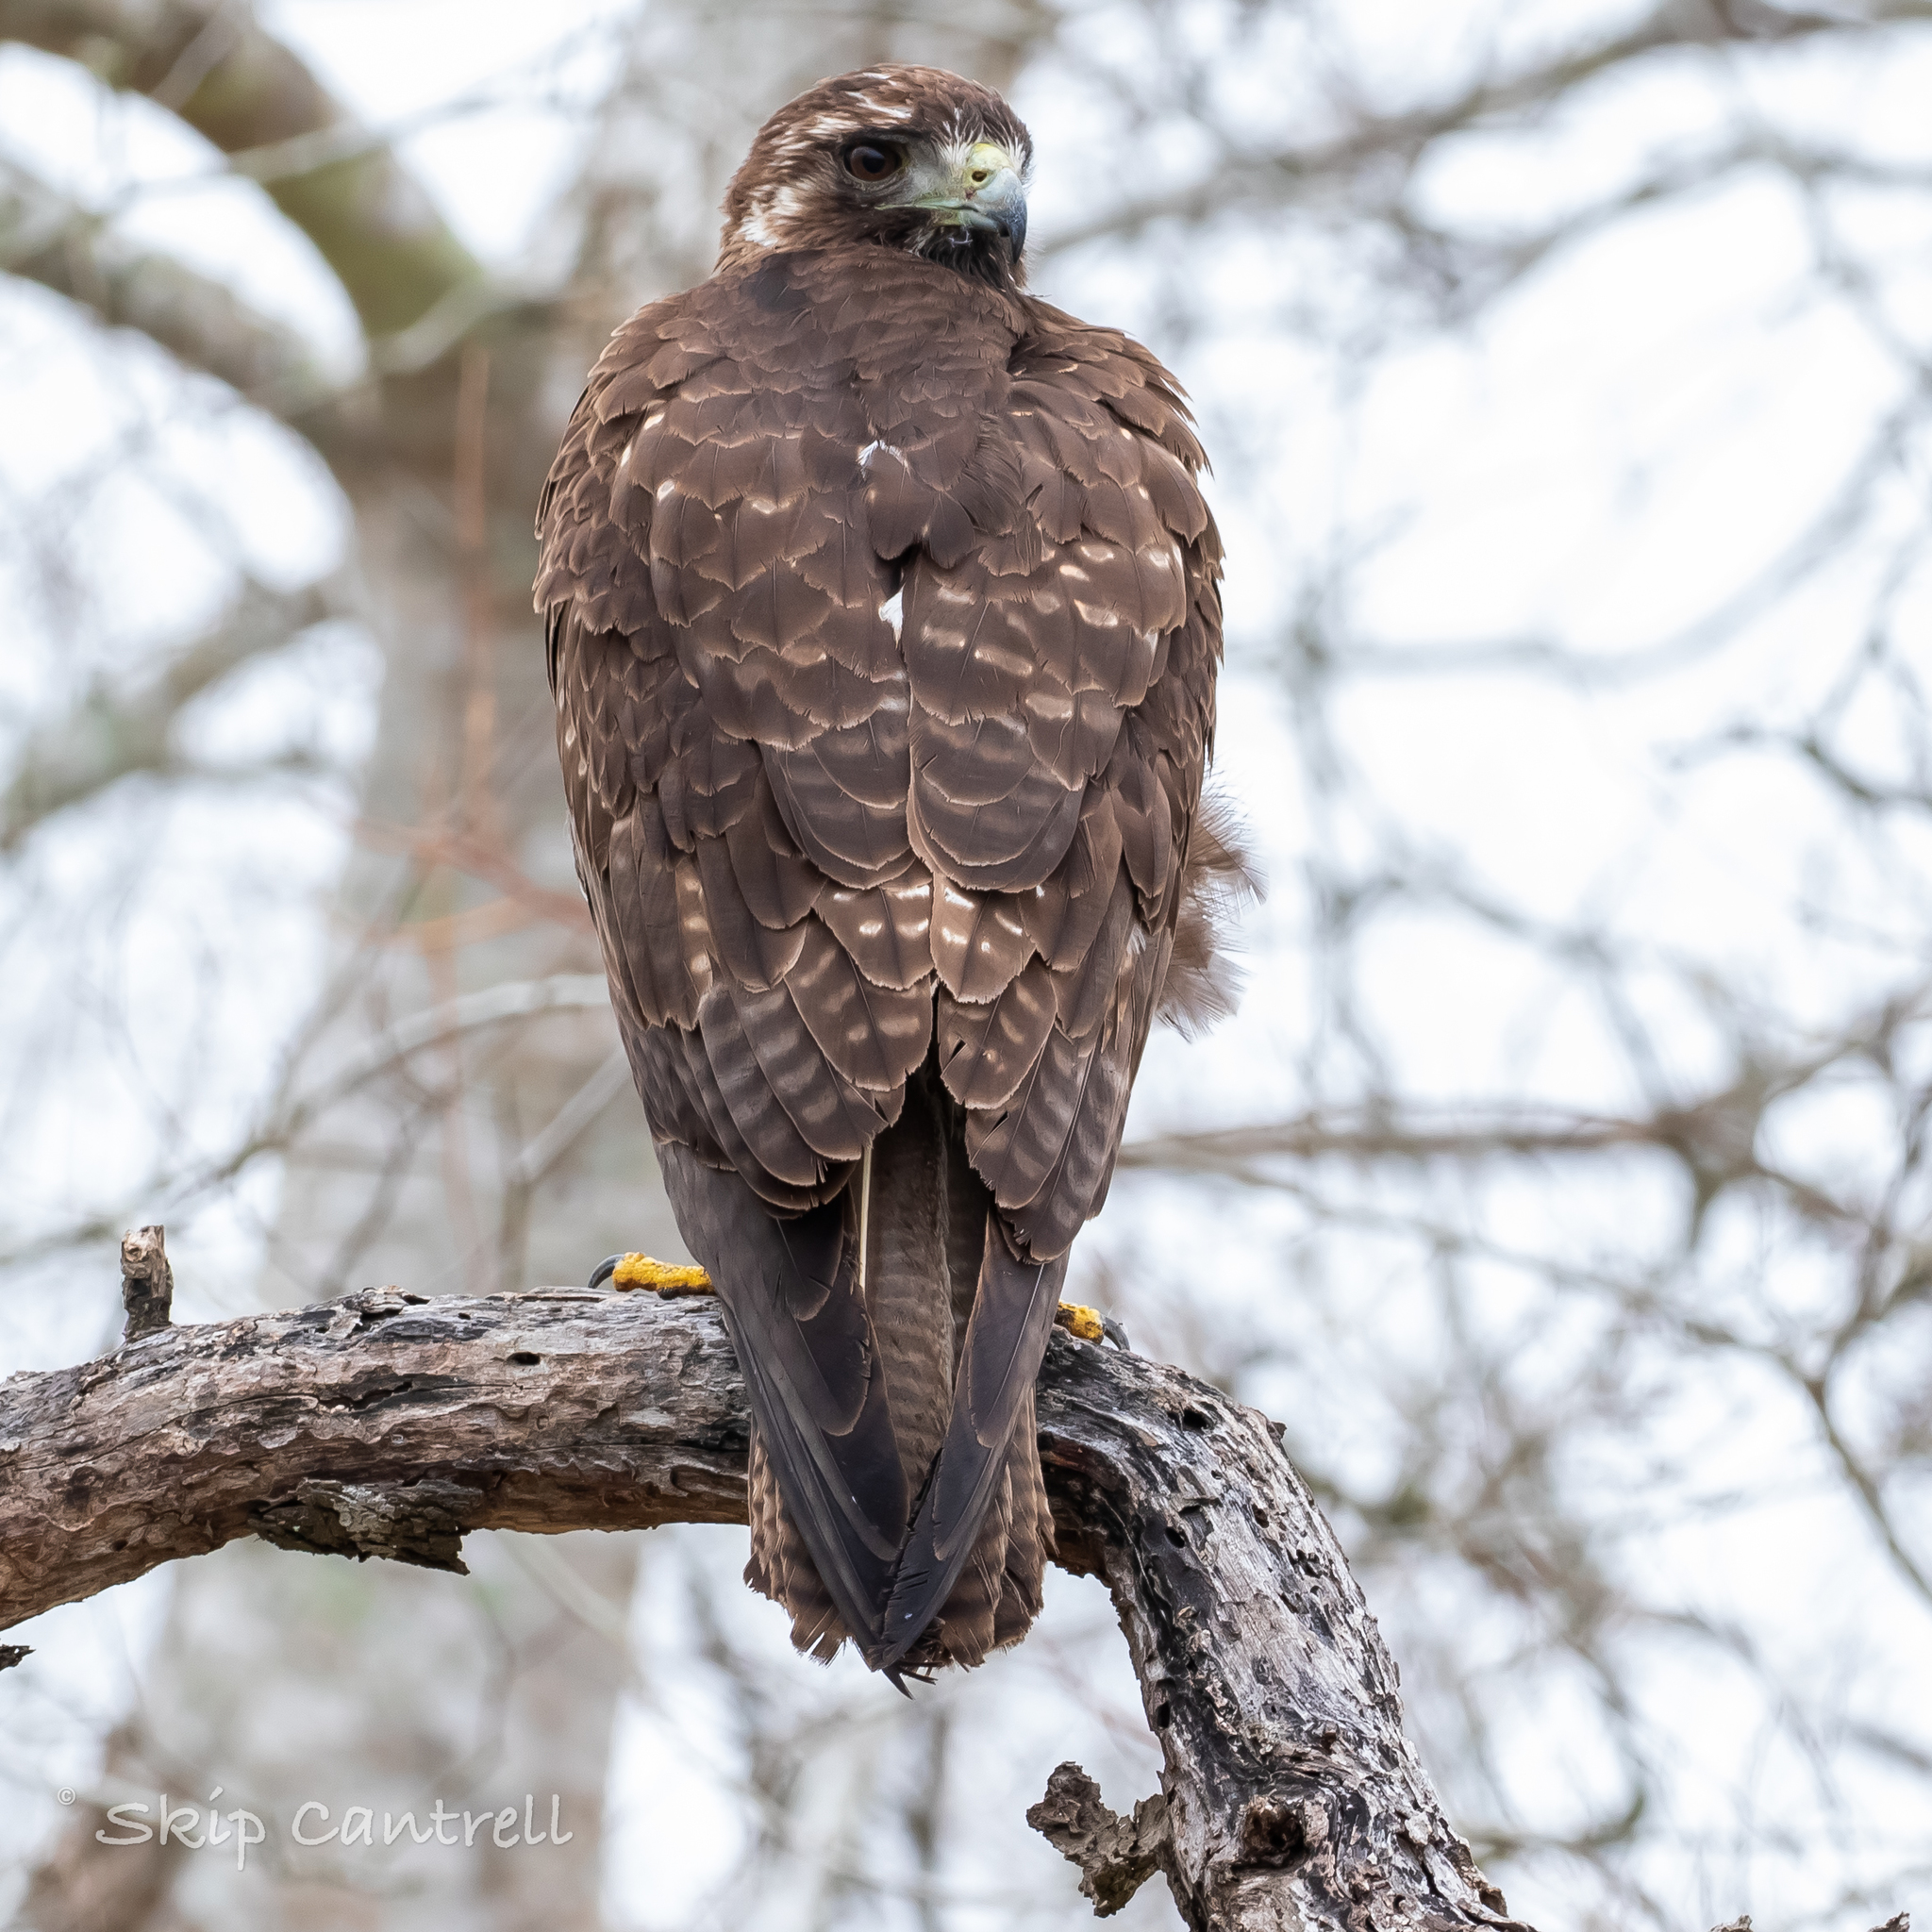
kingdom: Animalia
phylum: Chordata
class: Aves
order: Accipitriformes
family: Accipitridae
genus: Buteo
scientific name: Buteo albicaudatus
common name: White-tailed hawk
